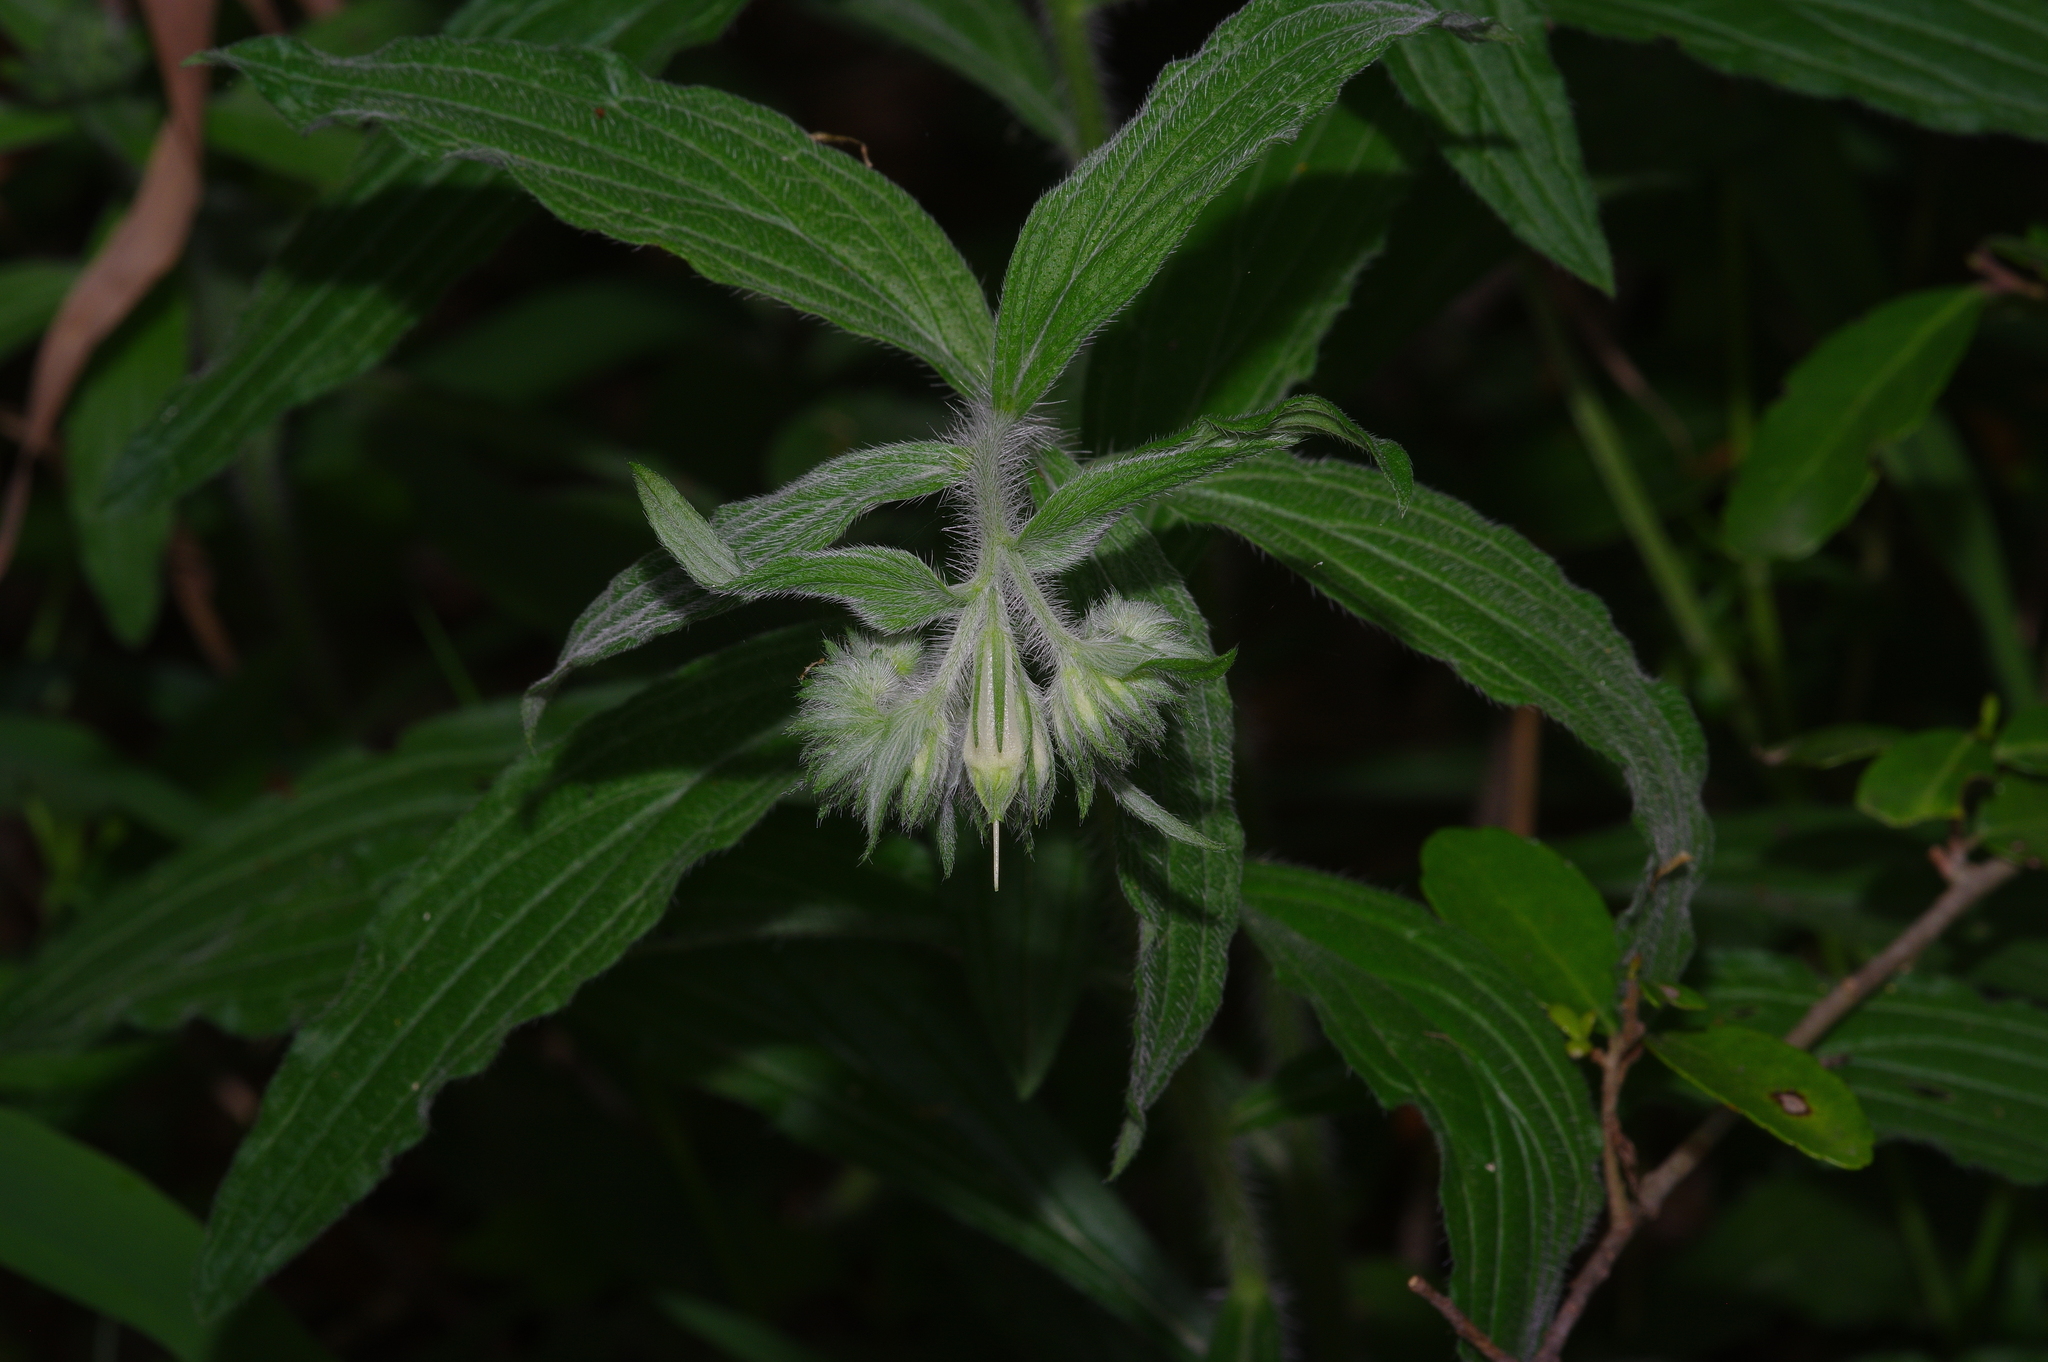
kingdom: Plantae
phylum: Tracheophyta
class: Magnoliopsida
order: Boraginales
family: Boraginaceae
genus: Lithospermum
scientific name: Lithospermum caroliniense
